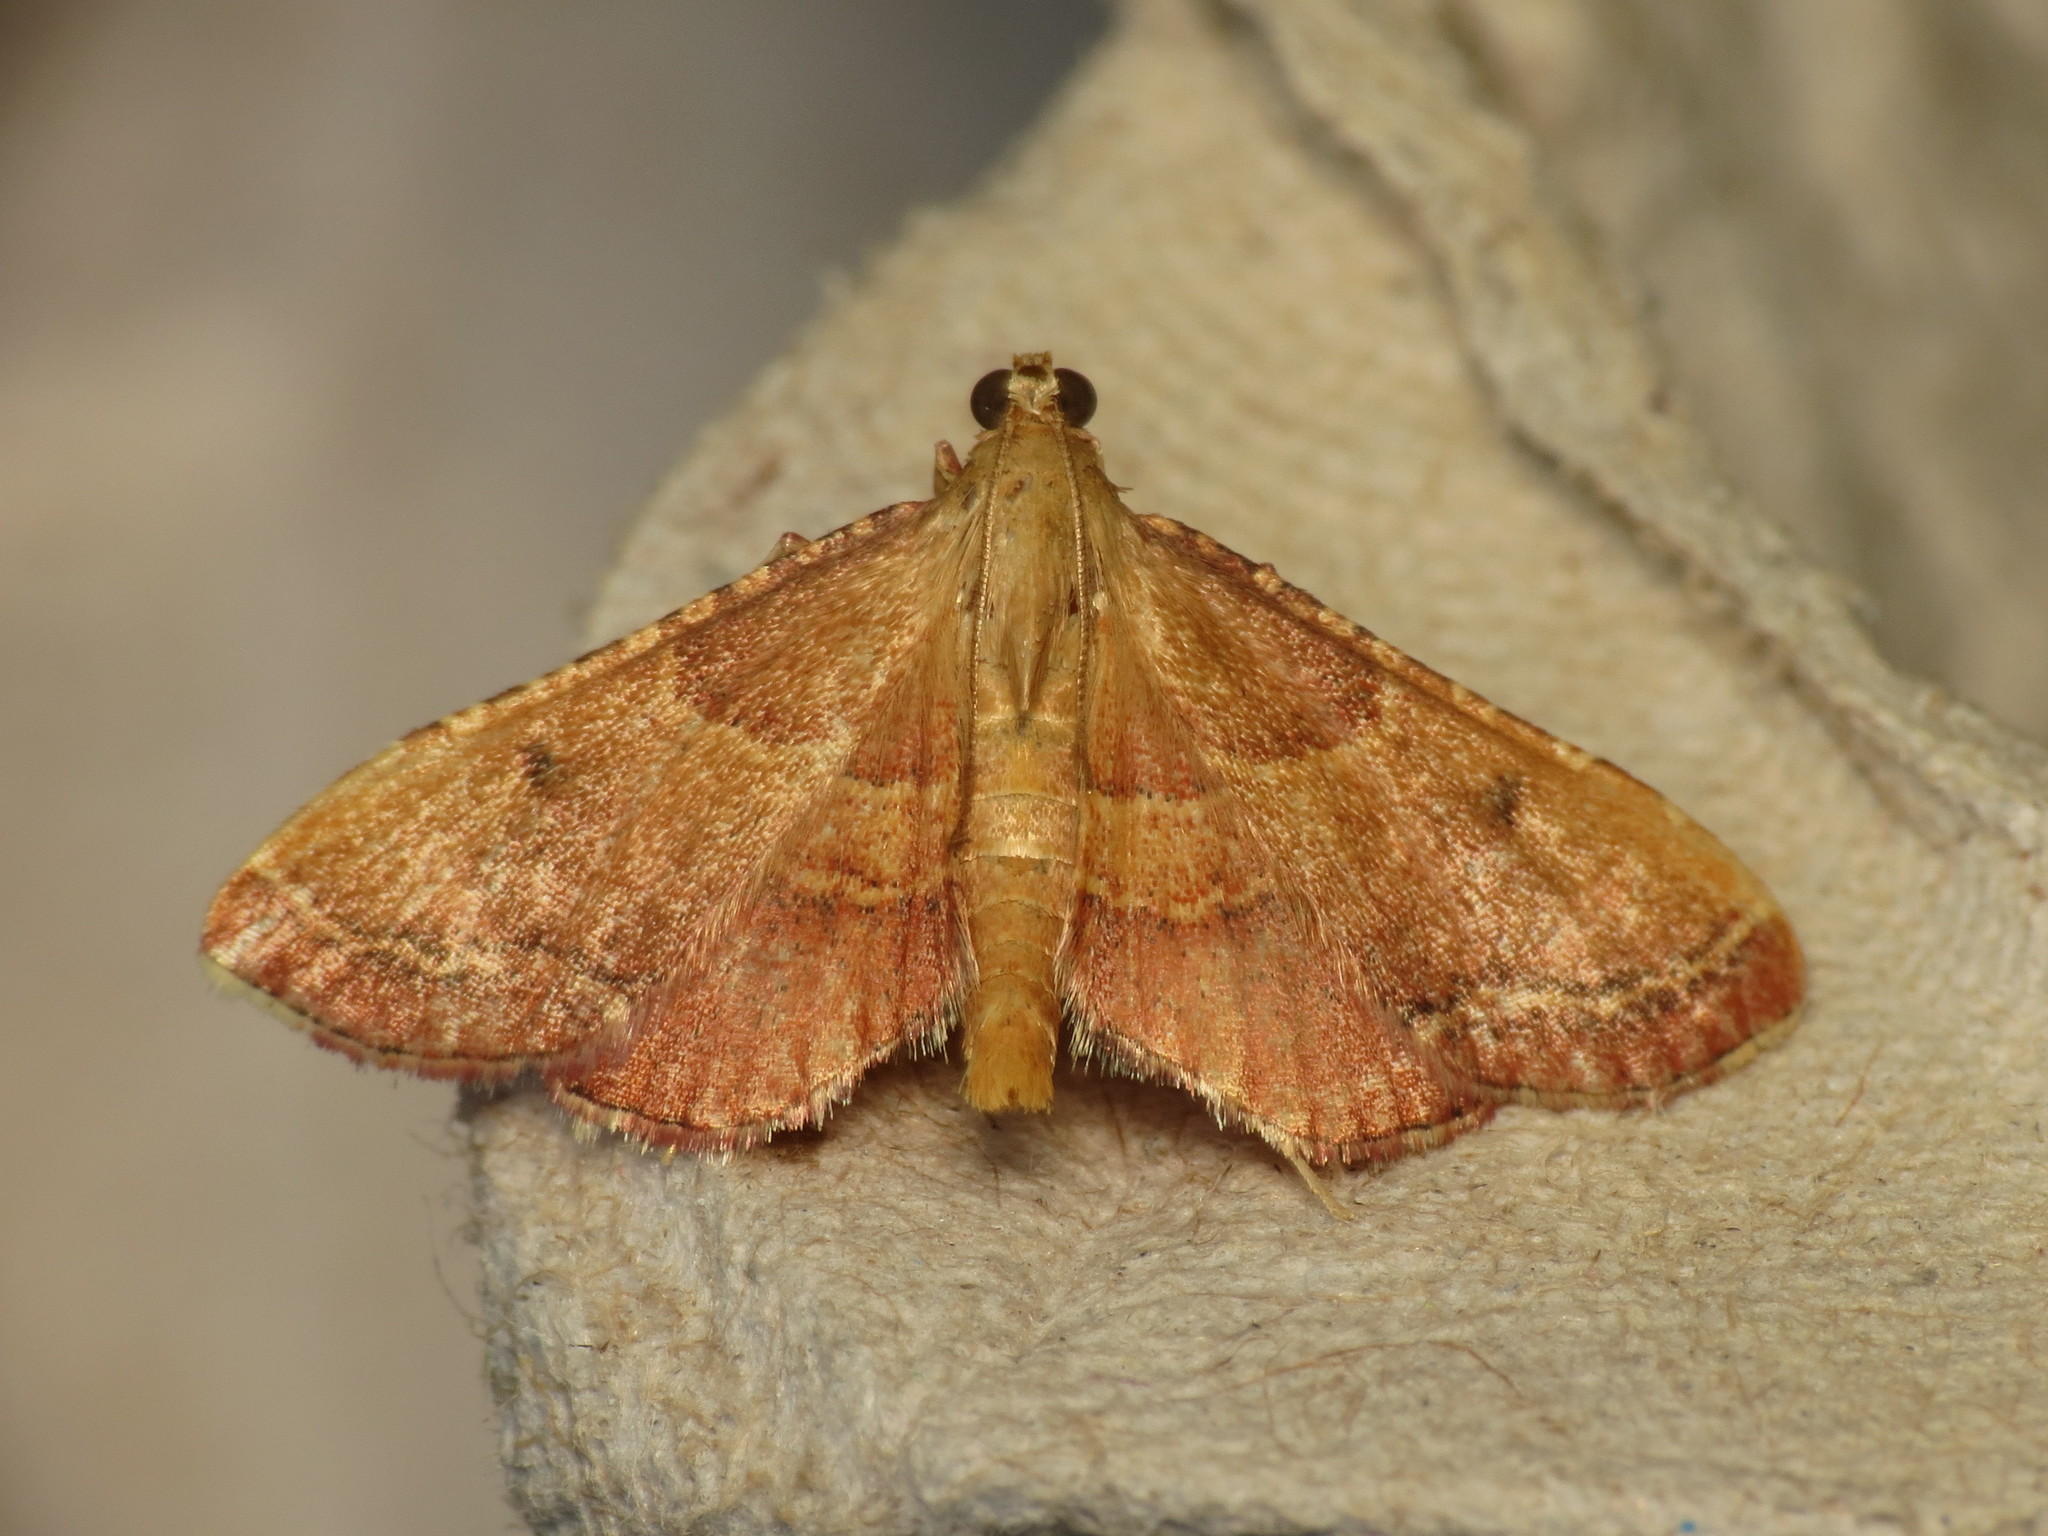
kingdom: Animalia
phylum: Arthropoda
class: Insecta
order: Lepidoptera
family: Pyralidae
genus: Endotricha
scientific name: Endotricha flammealis
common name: Rosy tabby
